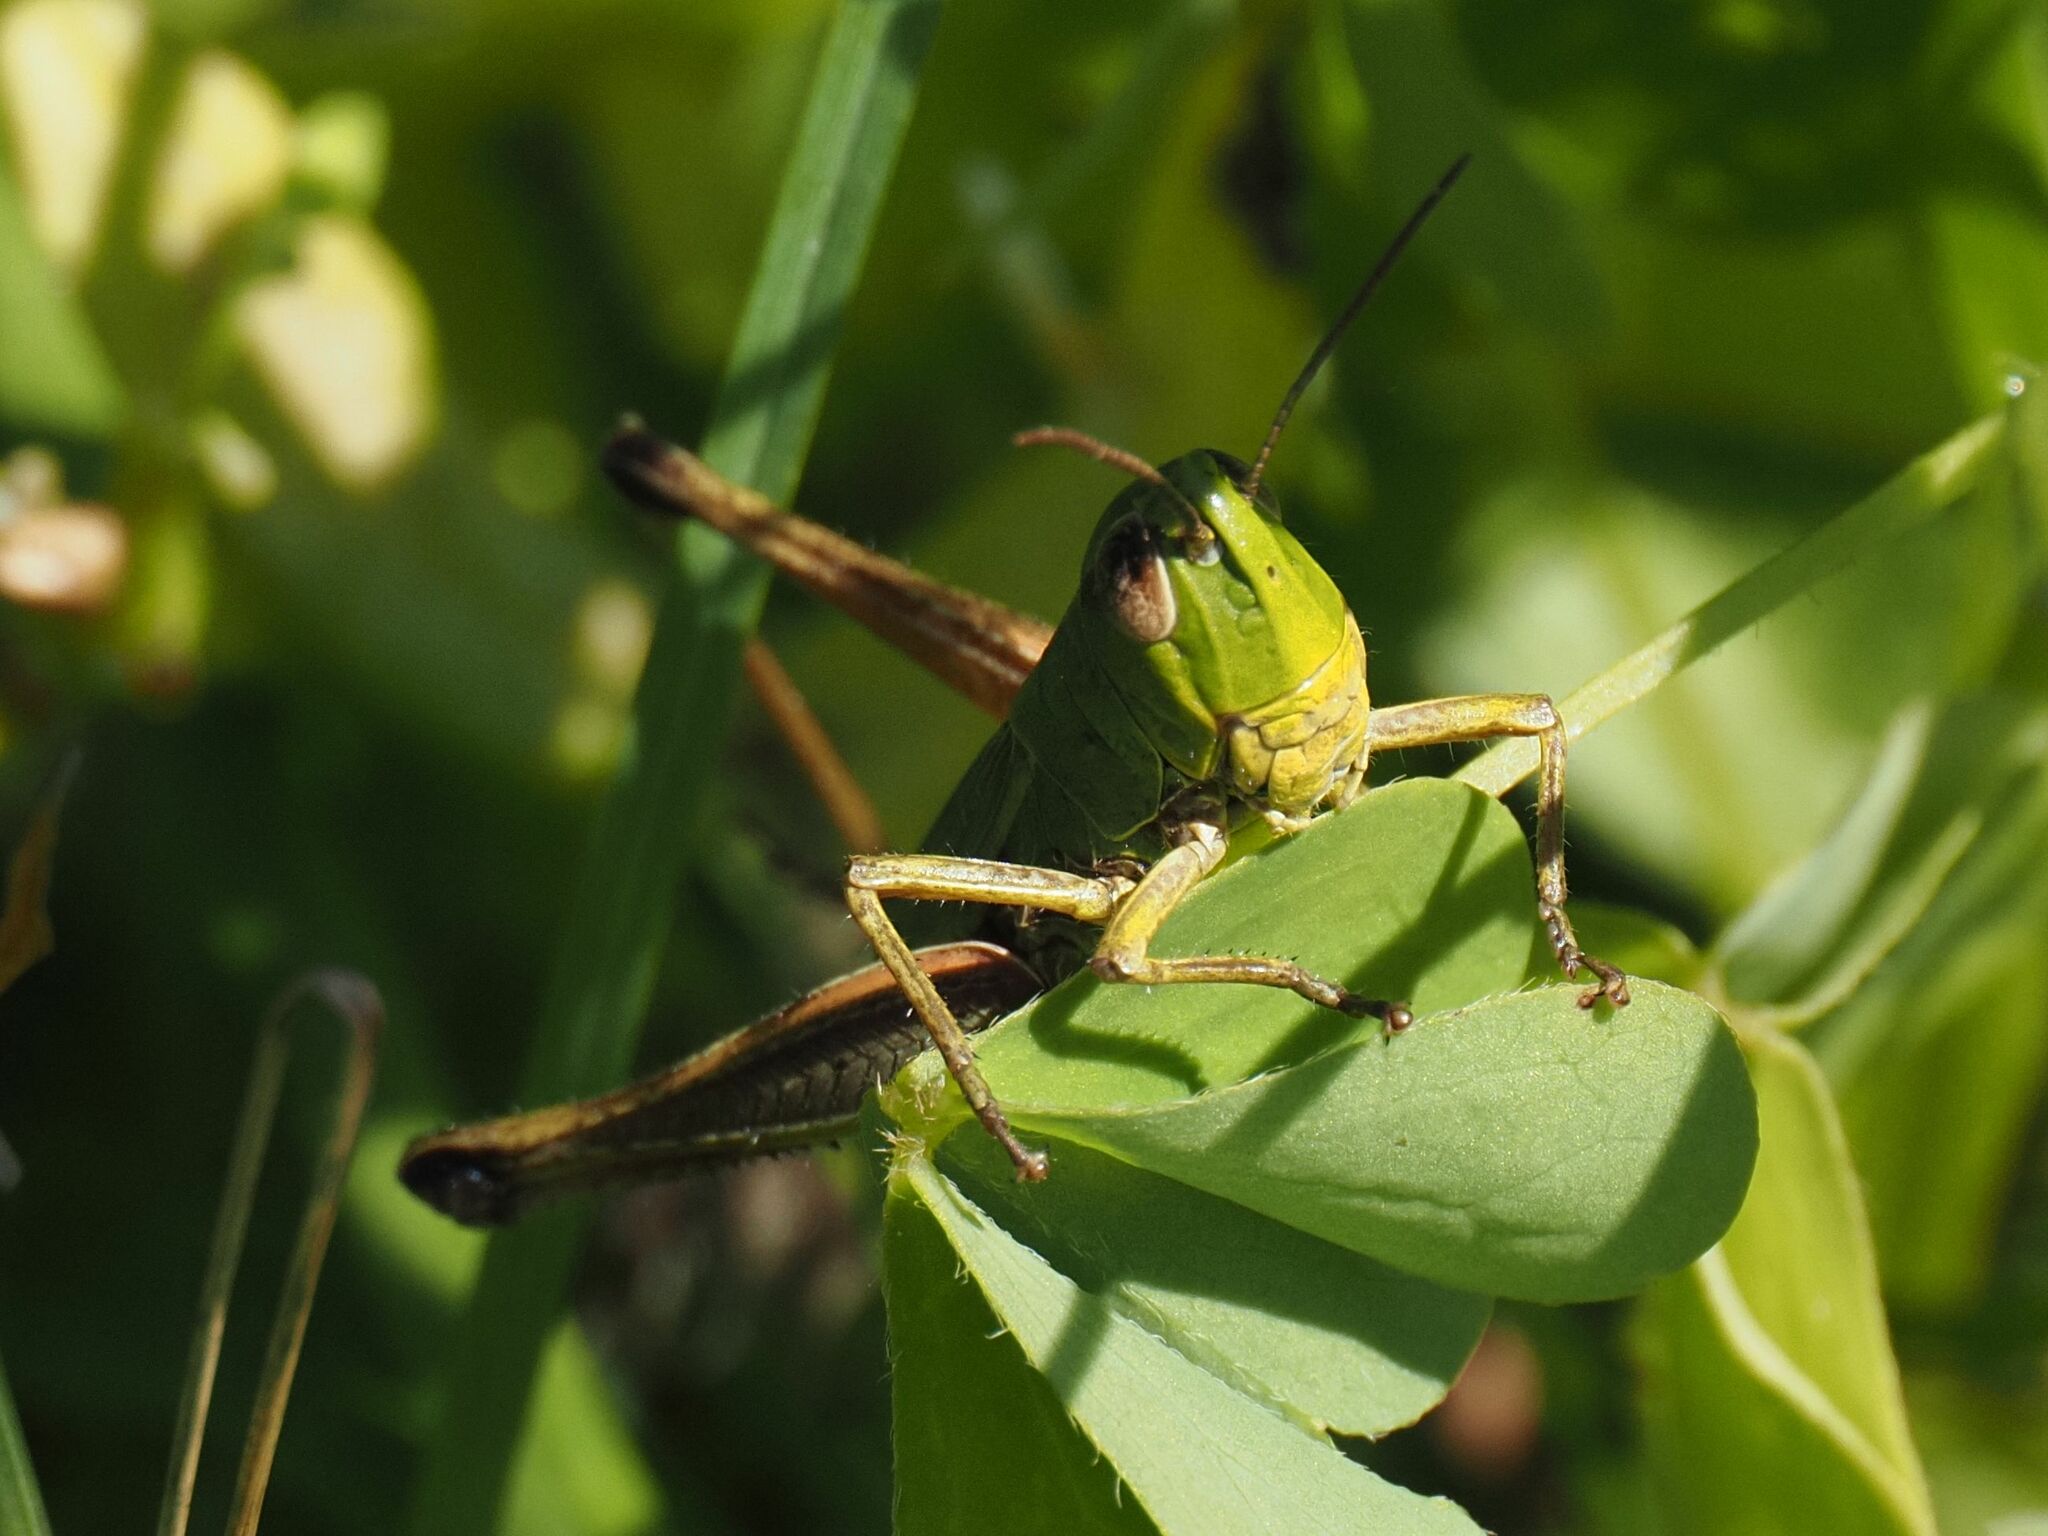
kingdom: Animalia
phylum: Arthropoda
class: Insecta
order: Orthoptera
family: Acrididae
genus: Pseudochorthippus
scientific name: Pseudochorthippus parallelus
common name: Meadow grasshopper
